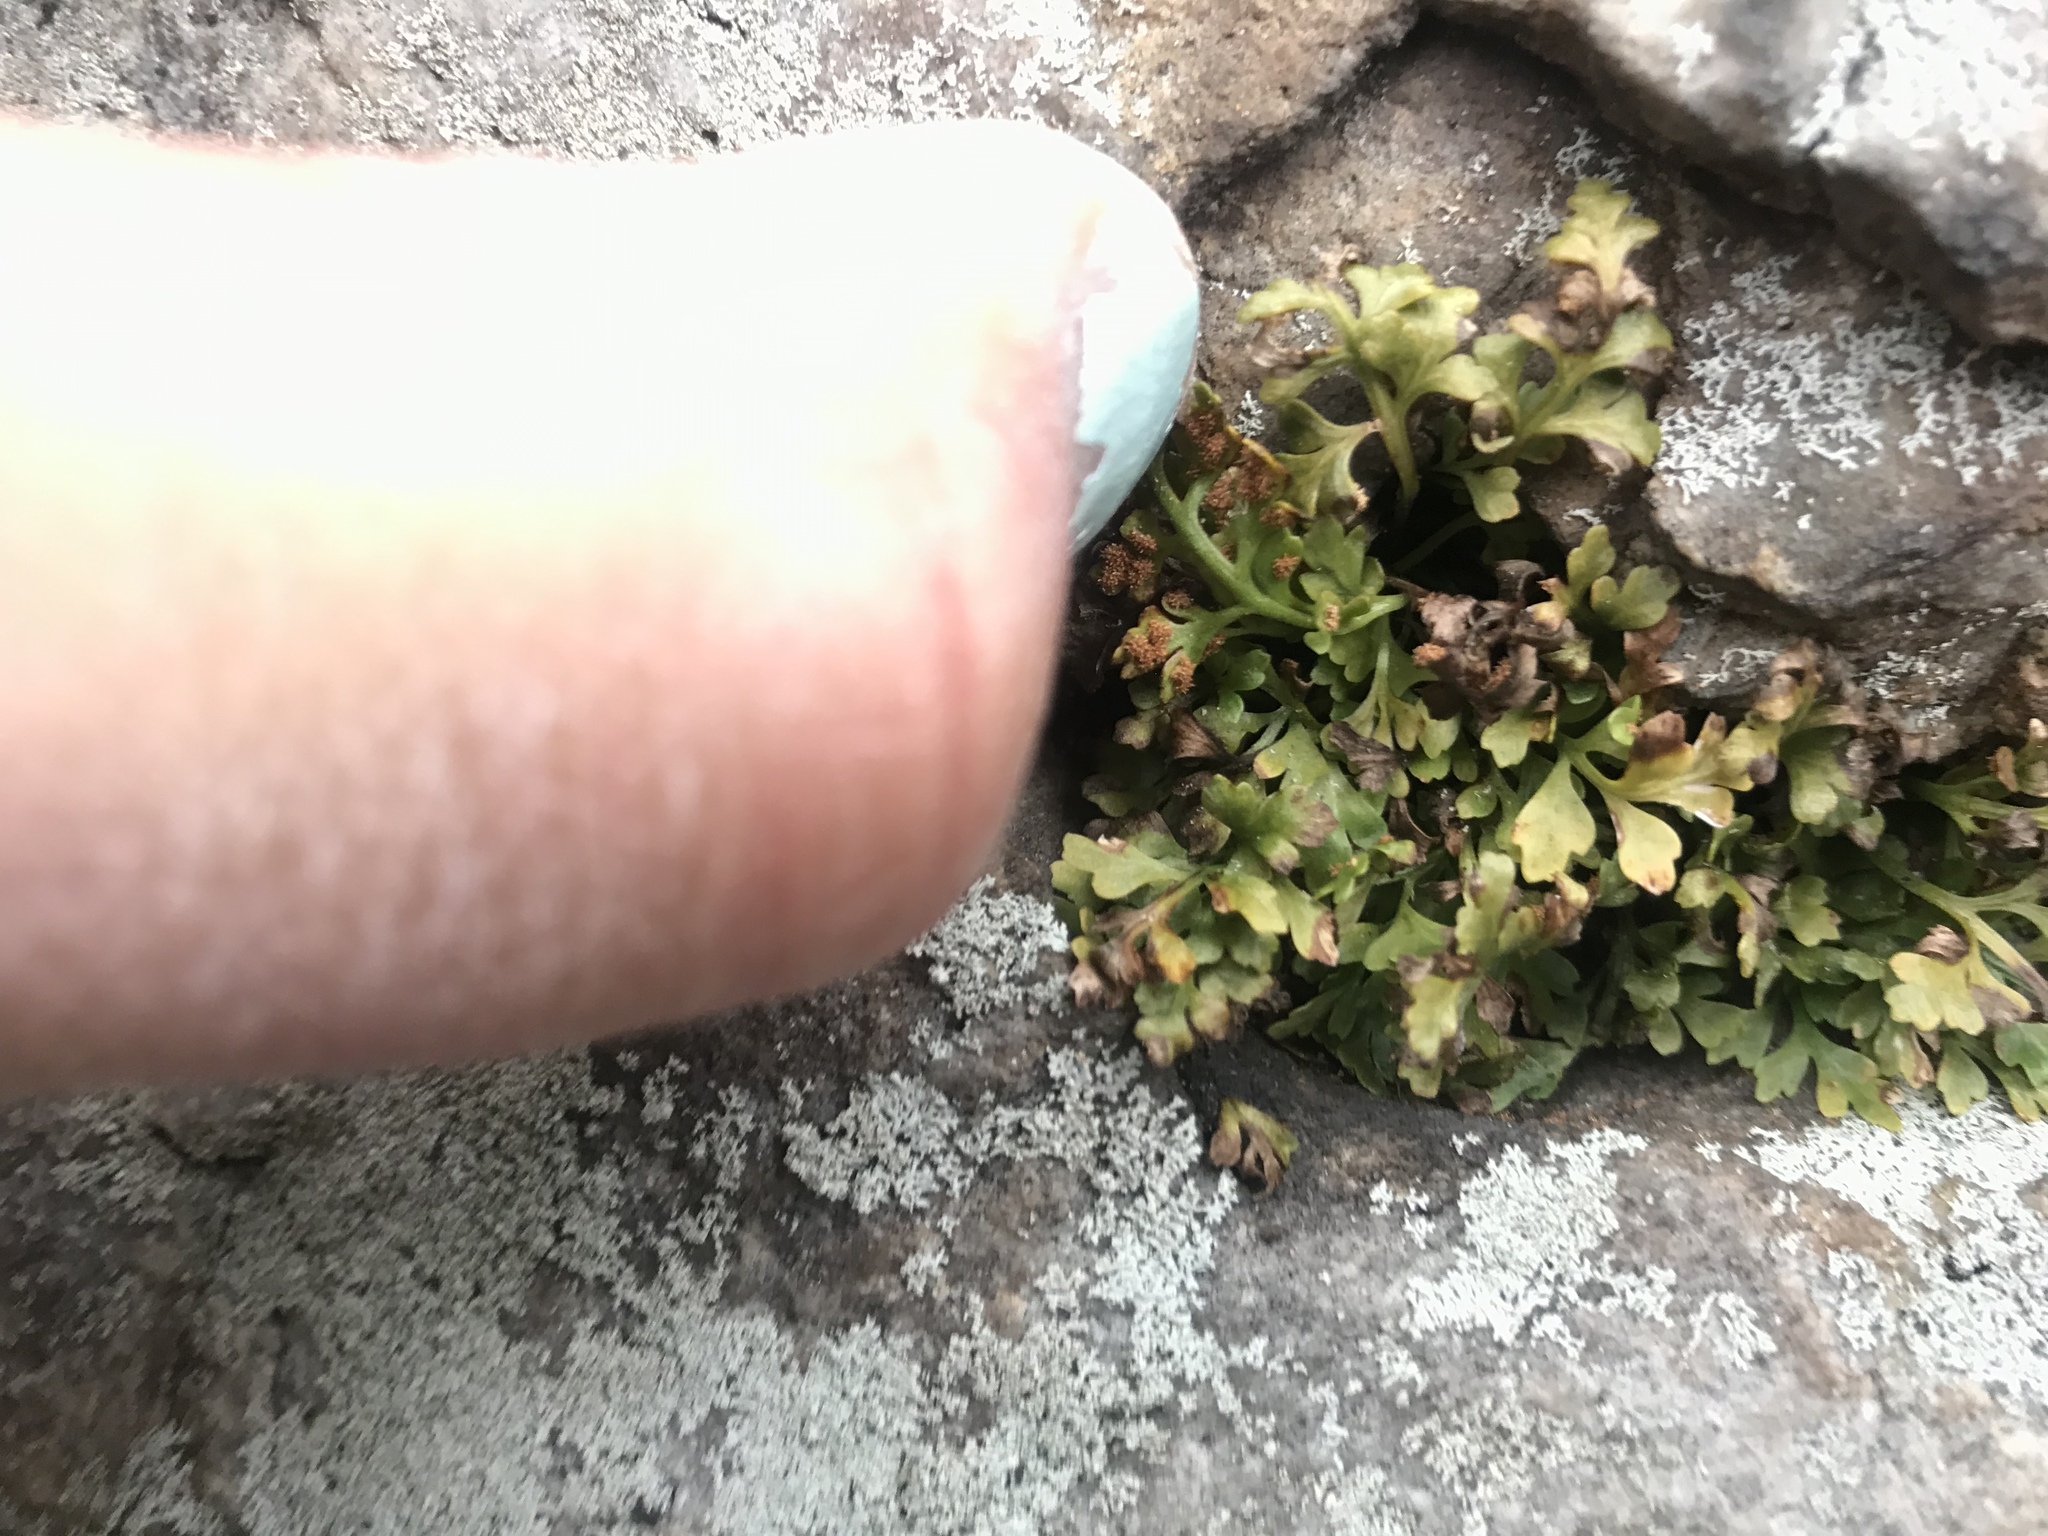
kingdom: Plantae
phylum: Tracheophyta
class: Polypodiopsida
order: Polypodiales
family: Aspleniaceae
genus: Asplenium
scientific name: Asplenium ruta-muraria
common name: Wall-rue
